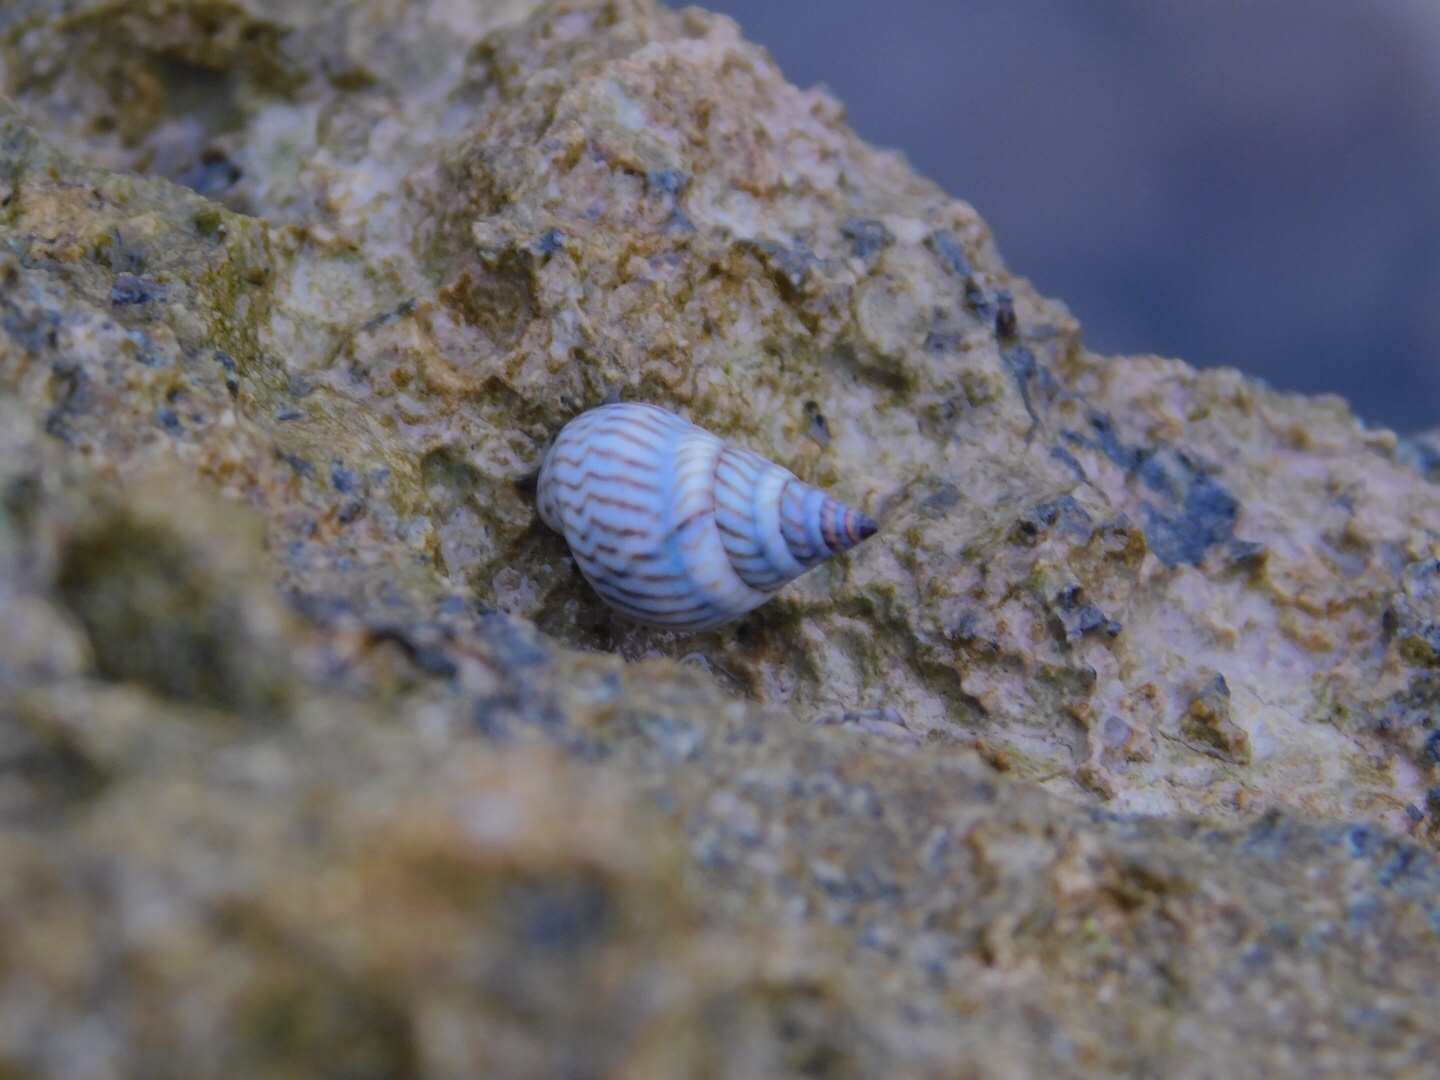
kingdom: Animalia
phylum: Mollusca
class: Gastropoda
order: Littorinimorpha
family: Littorinidae
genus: Echinolittorina
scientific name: Echinolittorina ziczac
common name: Zebra periwinkle
